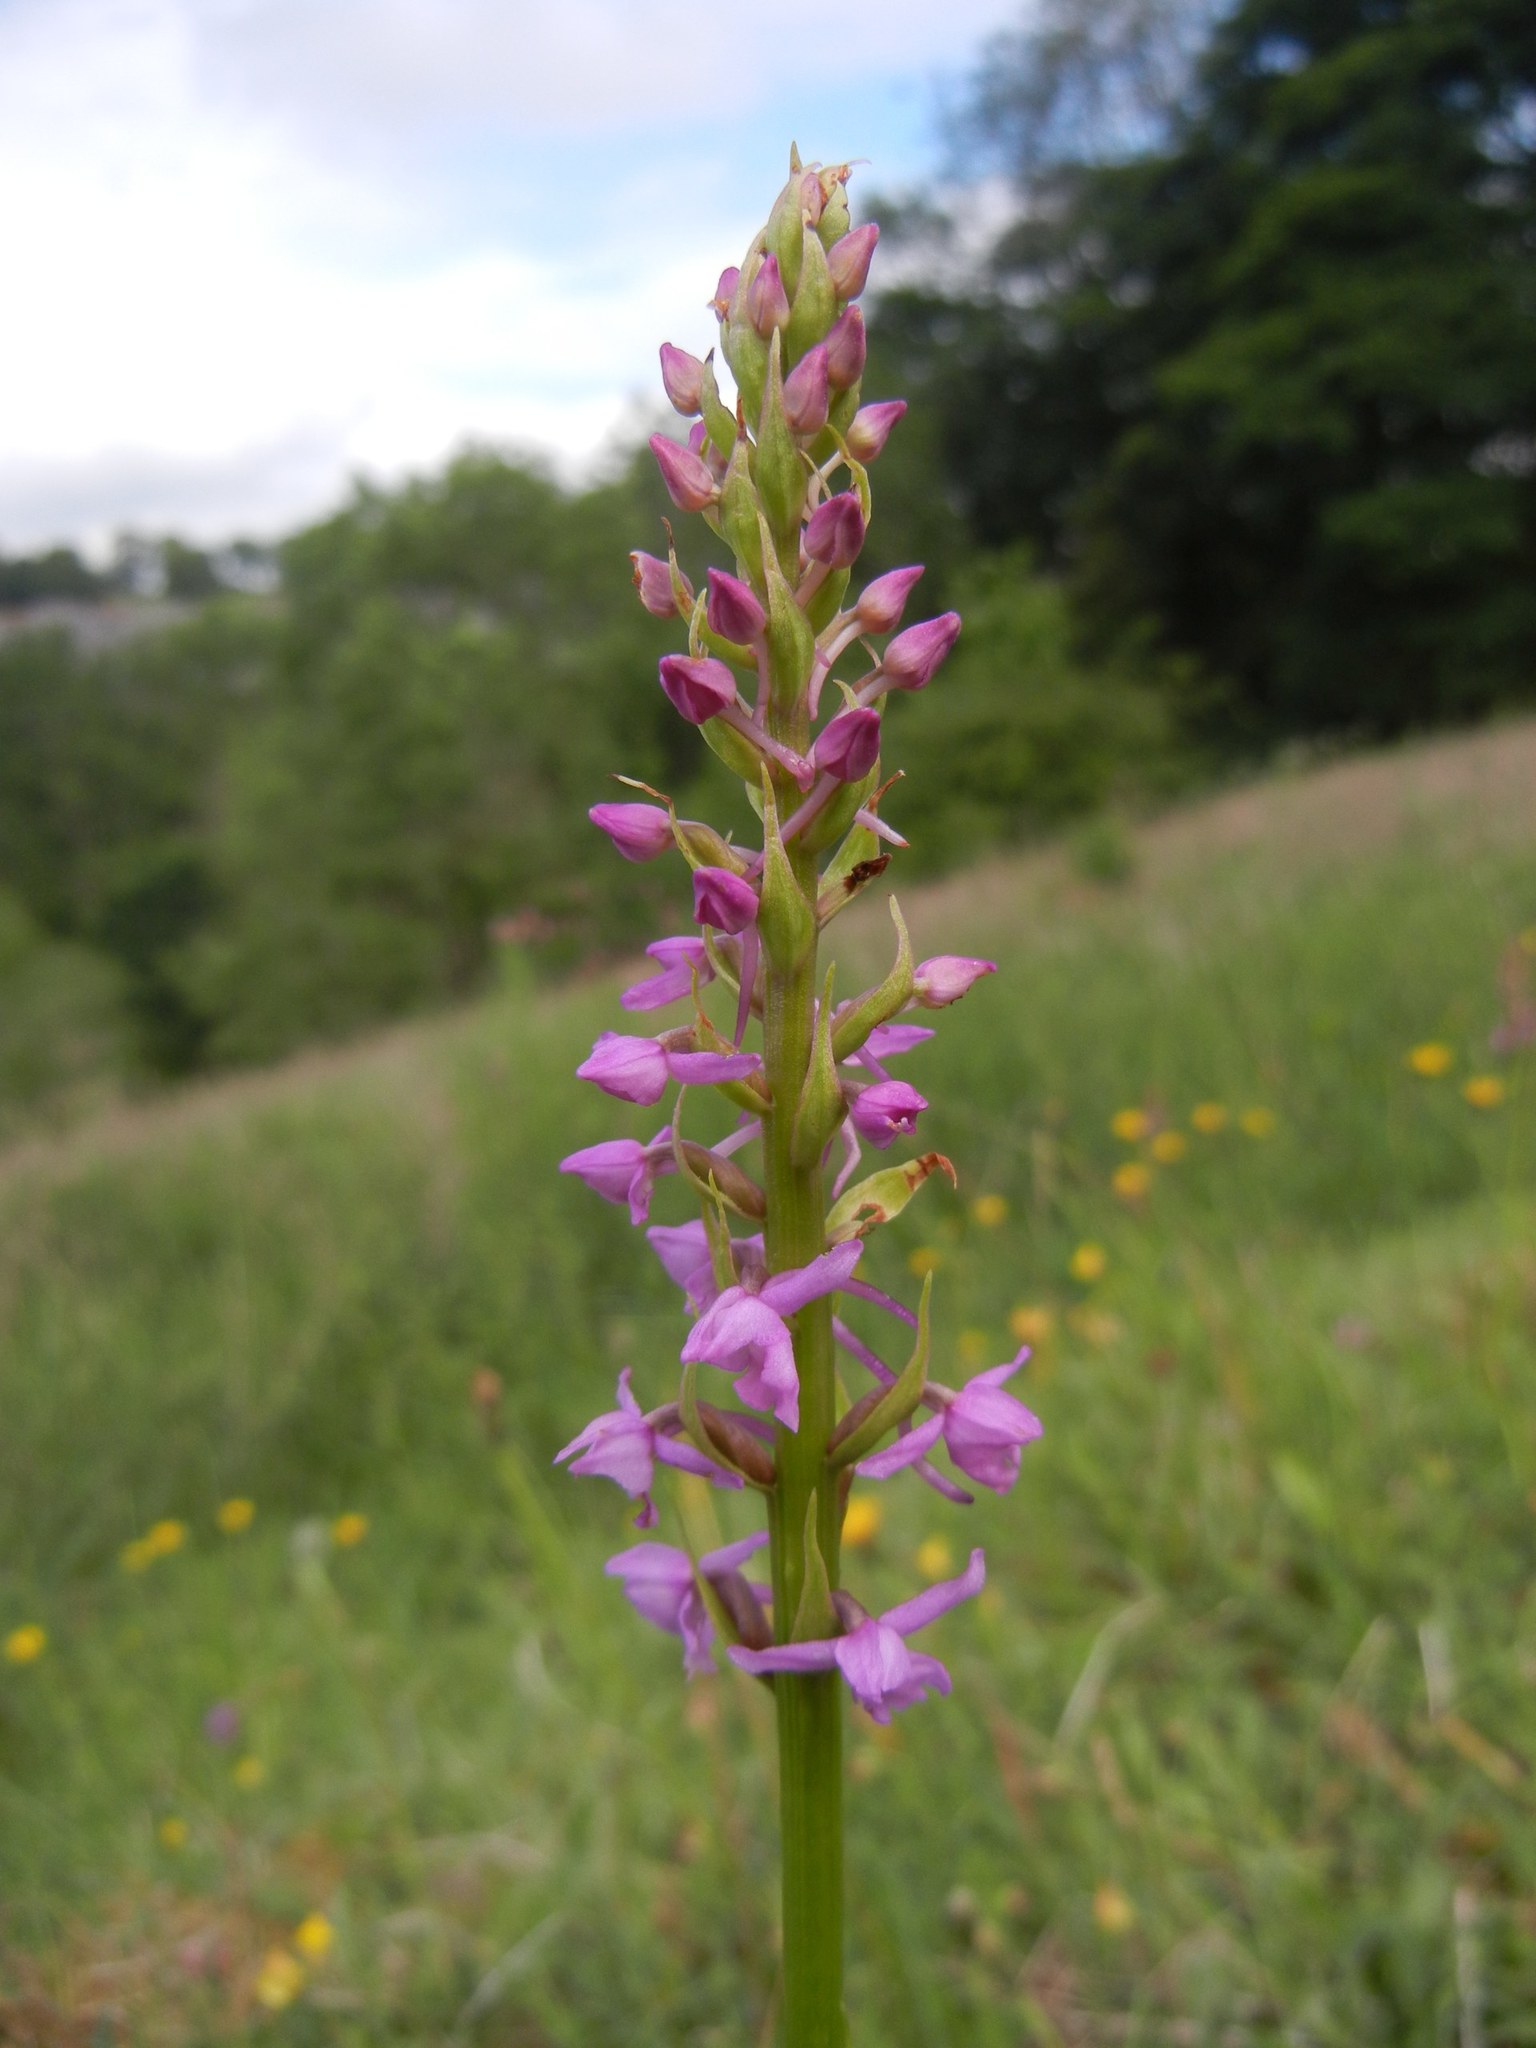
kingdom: Plantae
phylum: Tracheophyta
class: Liliopsida
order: Asparagales
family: Orchidaceae
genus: Gymnadenia
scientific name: Gymnadenia conopsea
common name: Fragrant orchid
